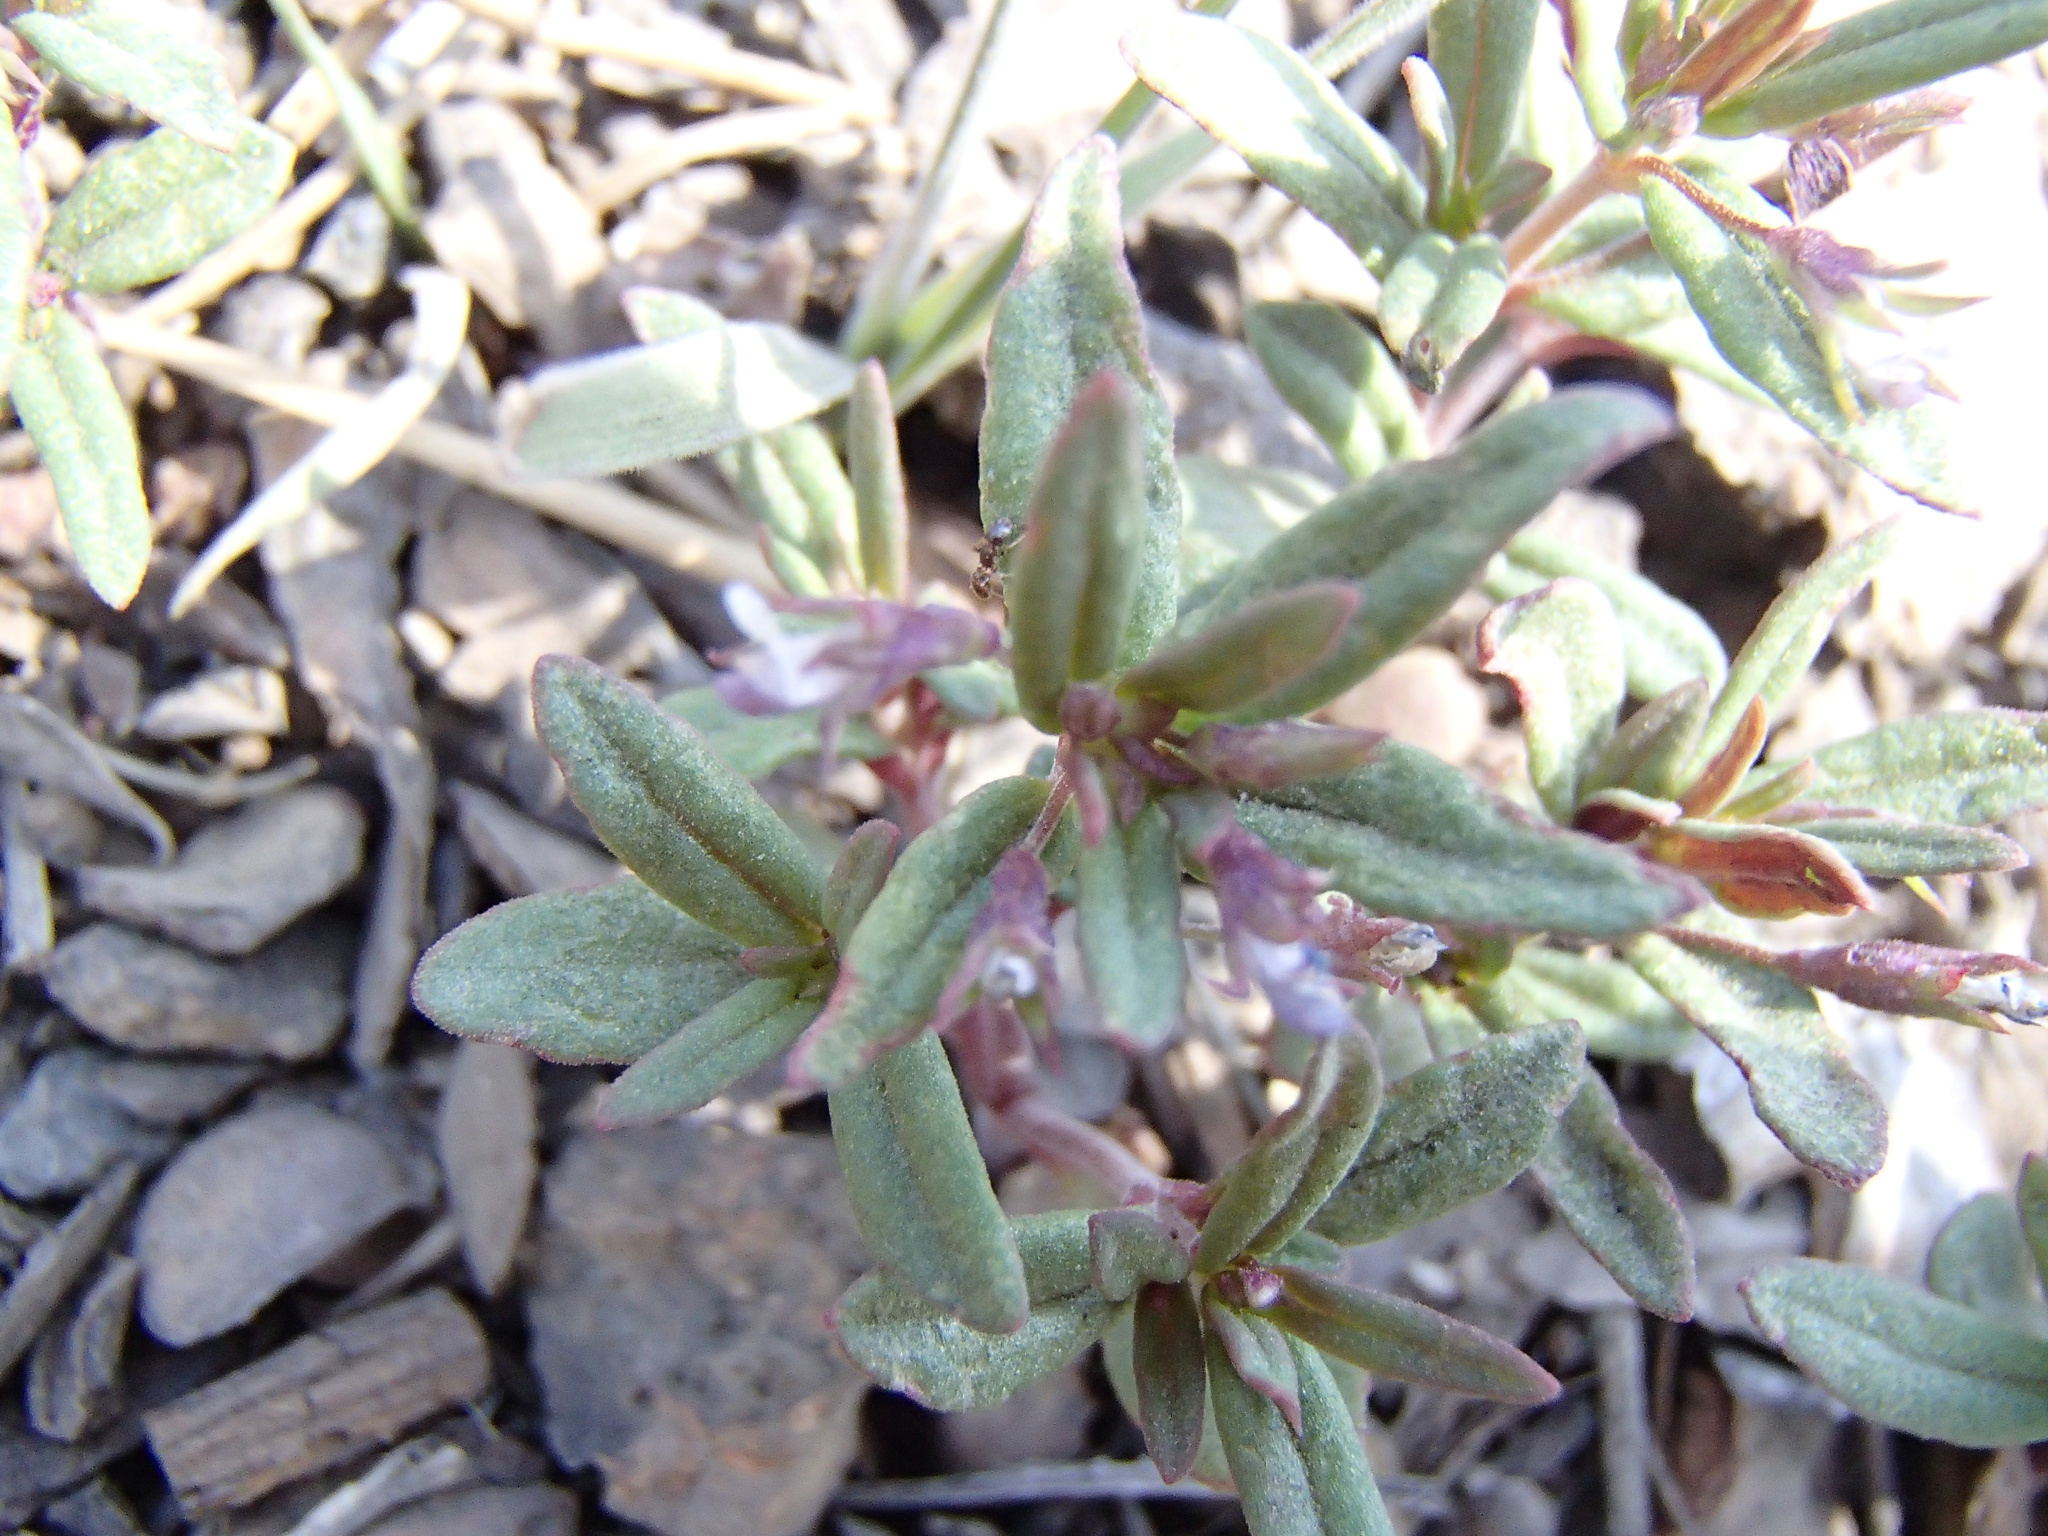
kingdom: Plantae
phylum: Tracheophyta
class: Magnoliopsida
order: Lamiales
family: Plantaginaceae
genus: Collinsia
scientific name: Collinsia parviflora
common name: Blue-lips
